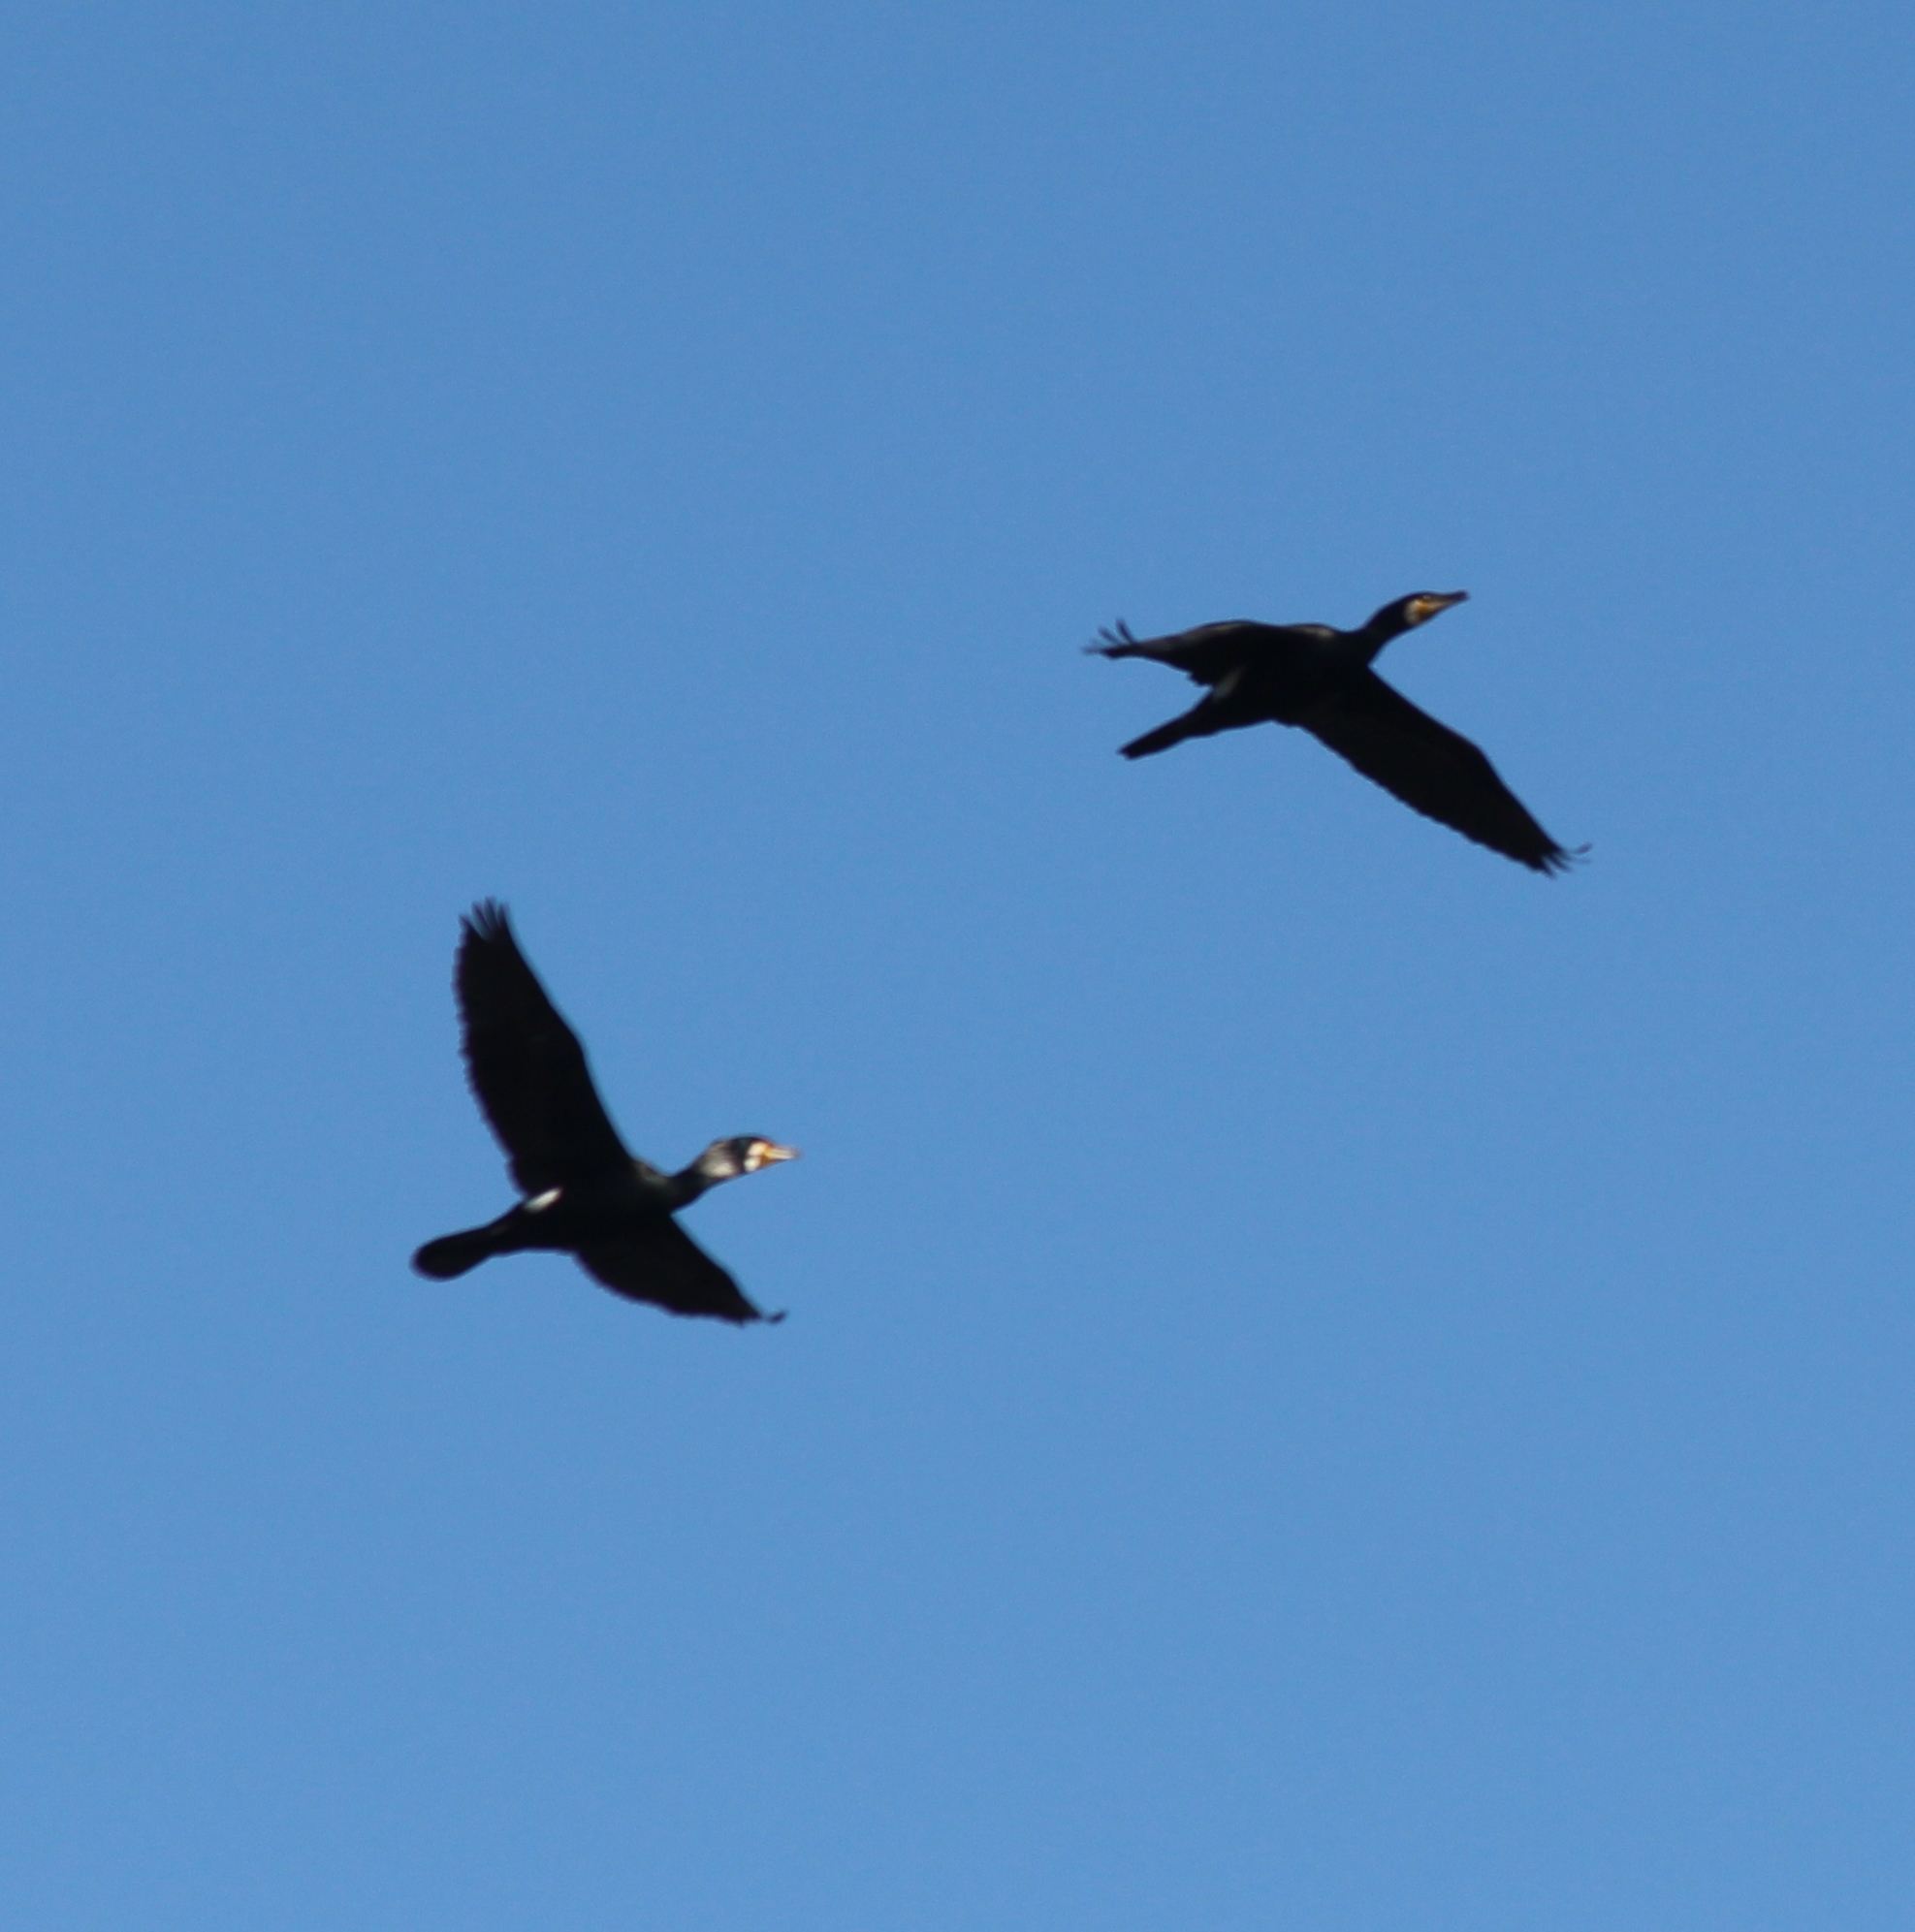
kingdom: Animalia
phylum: Chordata
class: Aves
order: Suliformes
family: Phalacrocoracidae
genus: Phalacrocorax
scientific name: Phalacrocorax carbo
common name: Great cormorant
